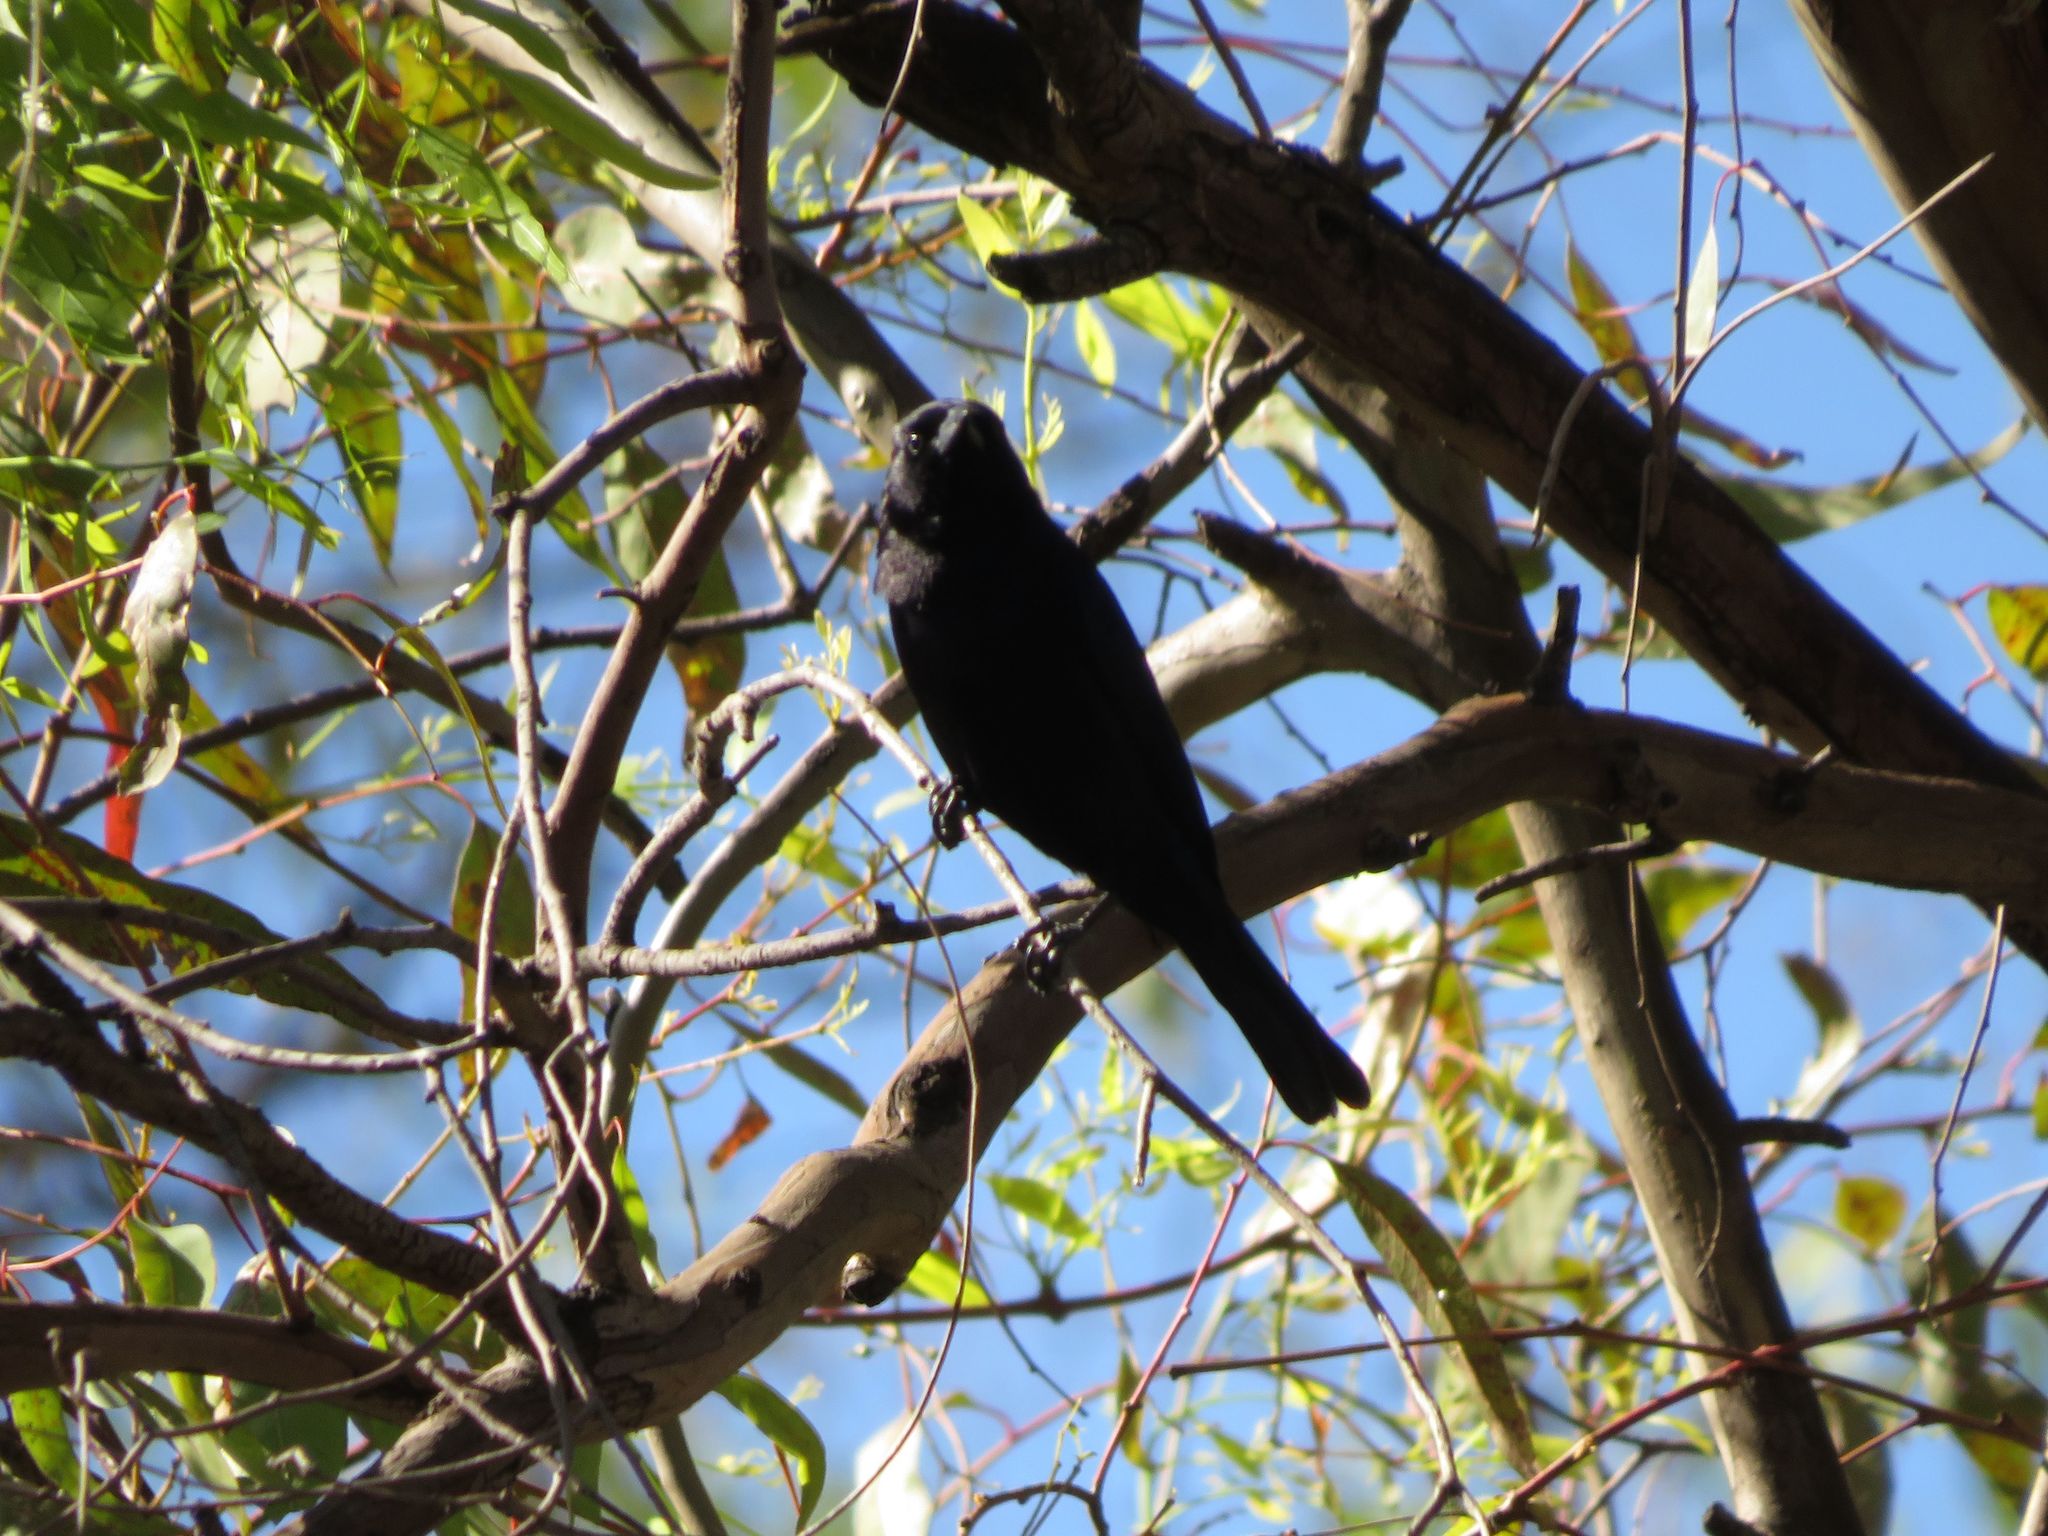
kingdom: Animalia
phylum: Chordata
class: Aves
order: Passeriformes
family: Icteridae
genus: Molothrus
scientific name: Molothrus bonariensis
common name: Shiny cowbird
